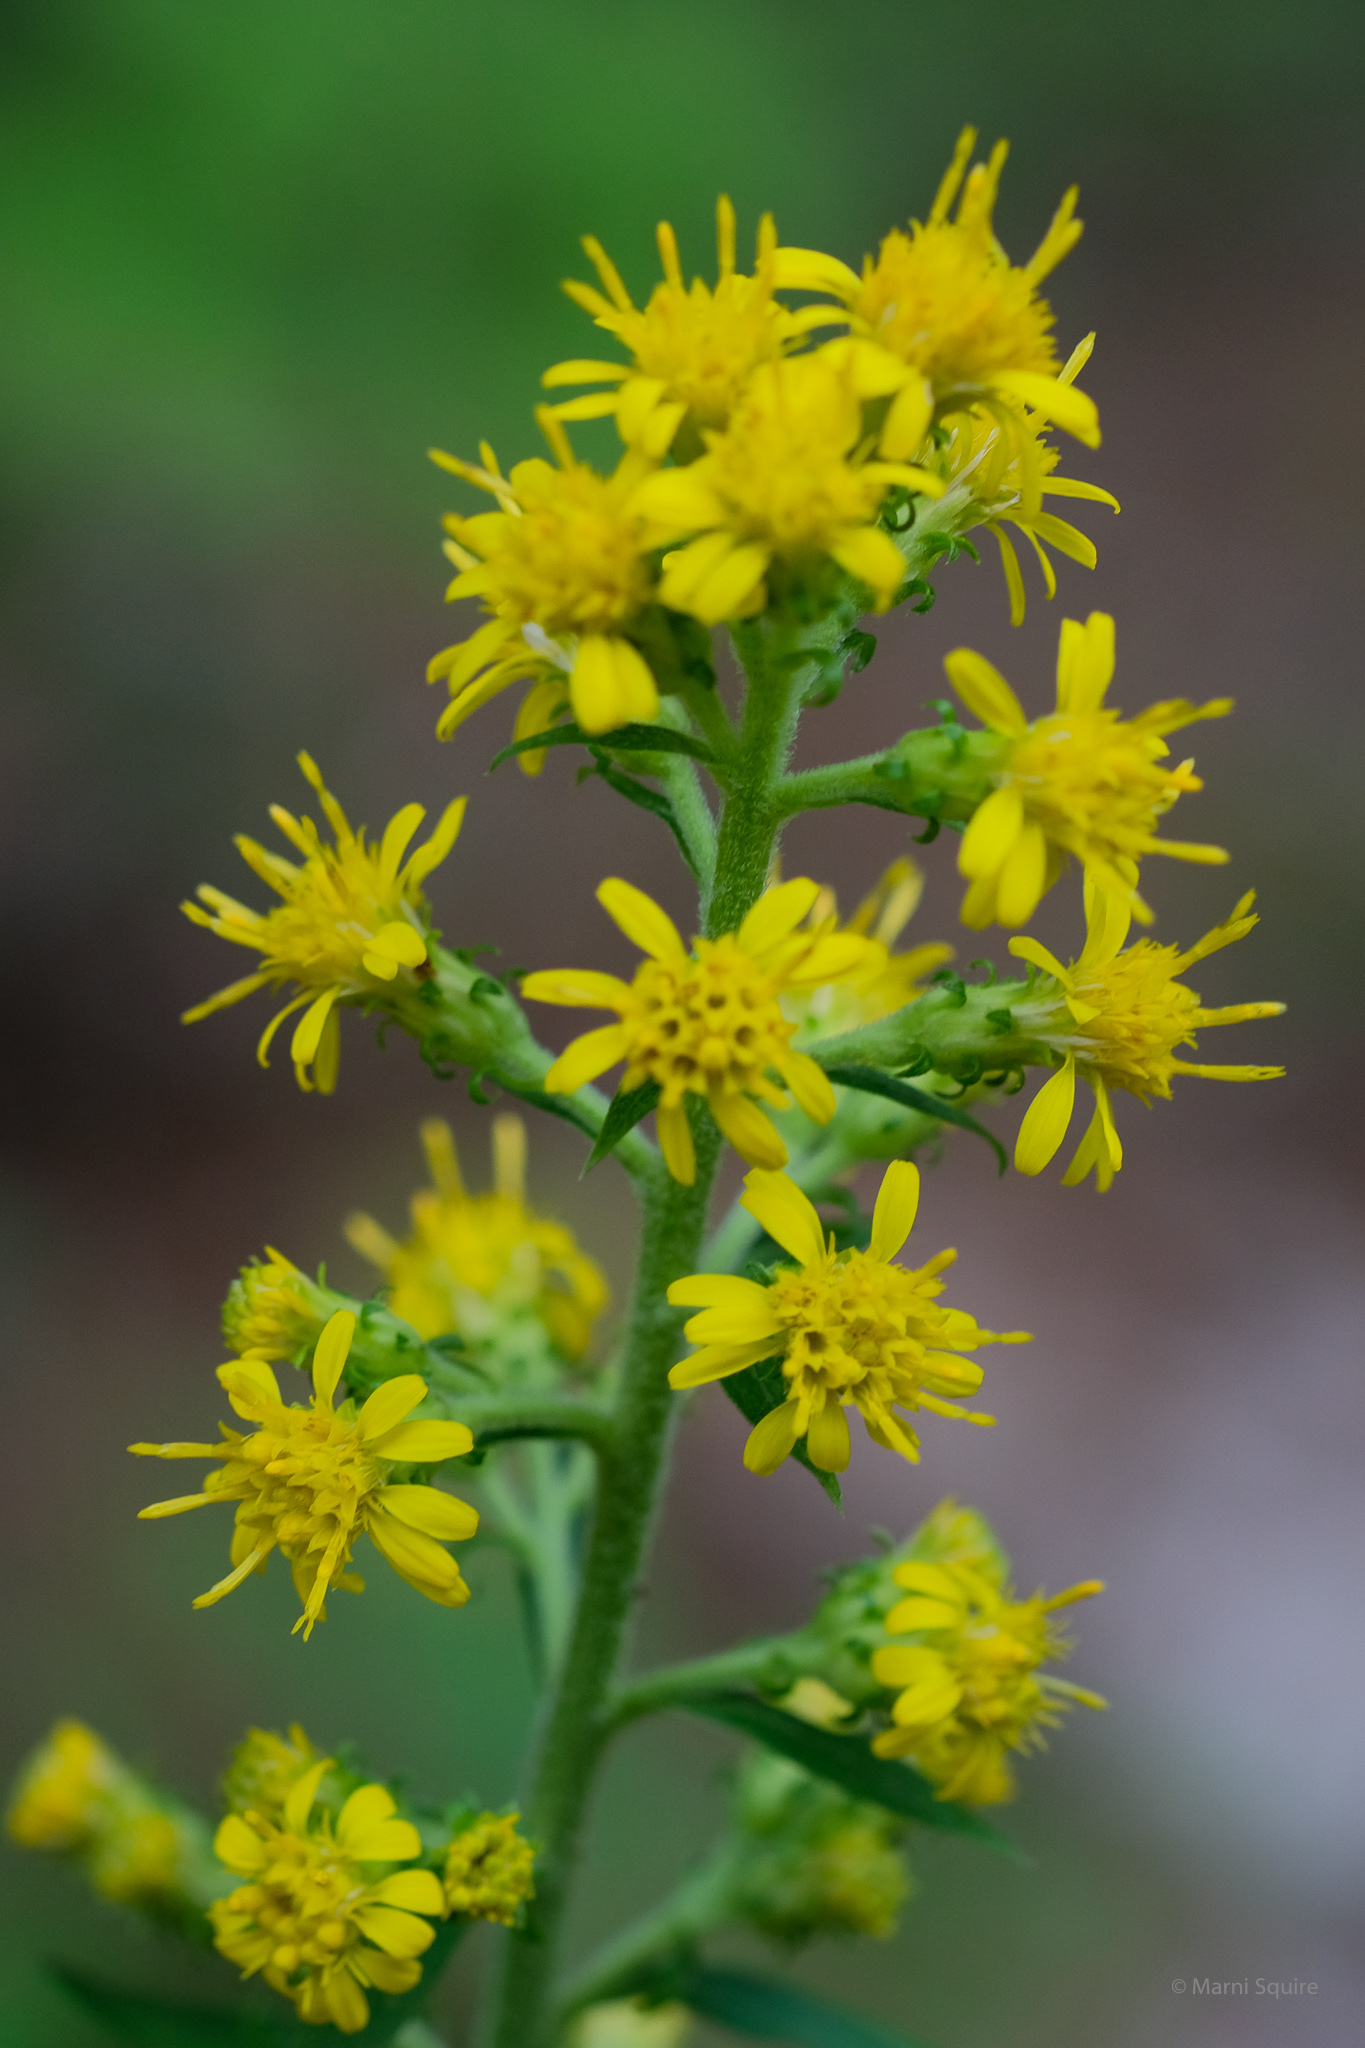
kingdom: Plantae
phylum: Tracheophyta
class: Magnoliopsida
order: Asterales
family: Asteraceae
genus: Solidago
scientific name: Solidago squarrosa
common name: Stout goldenrod
